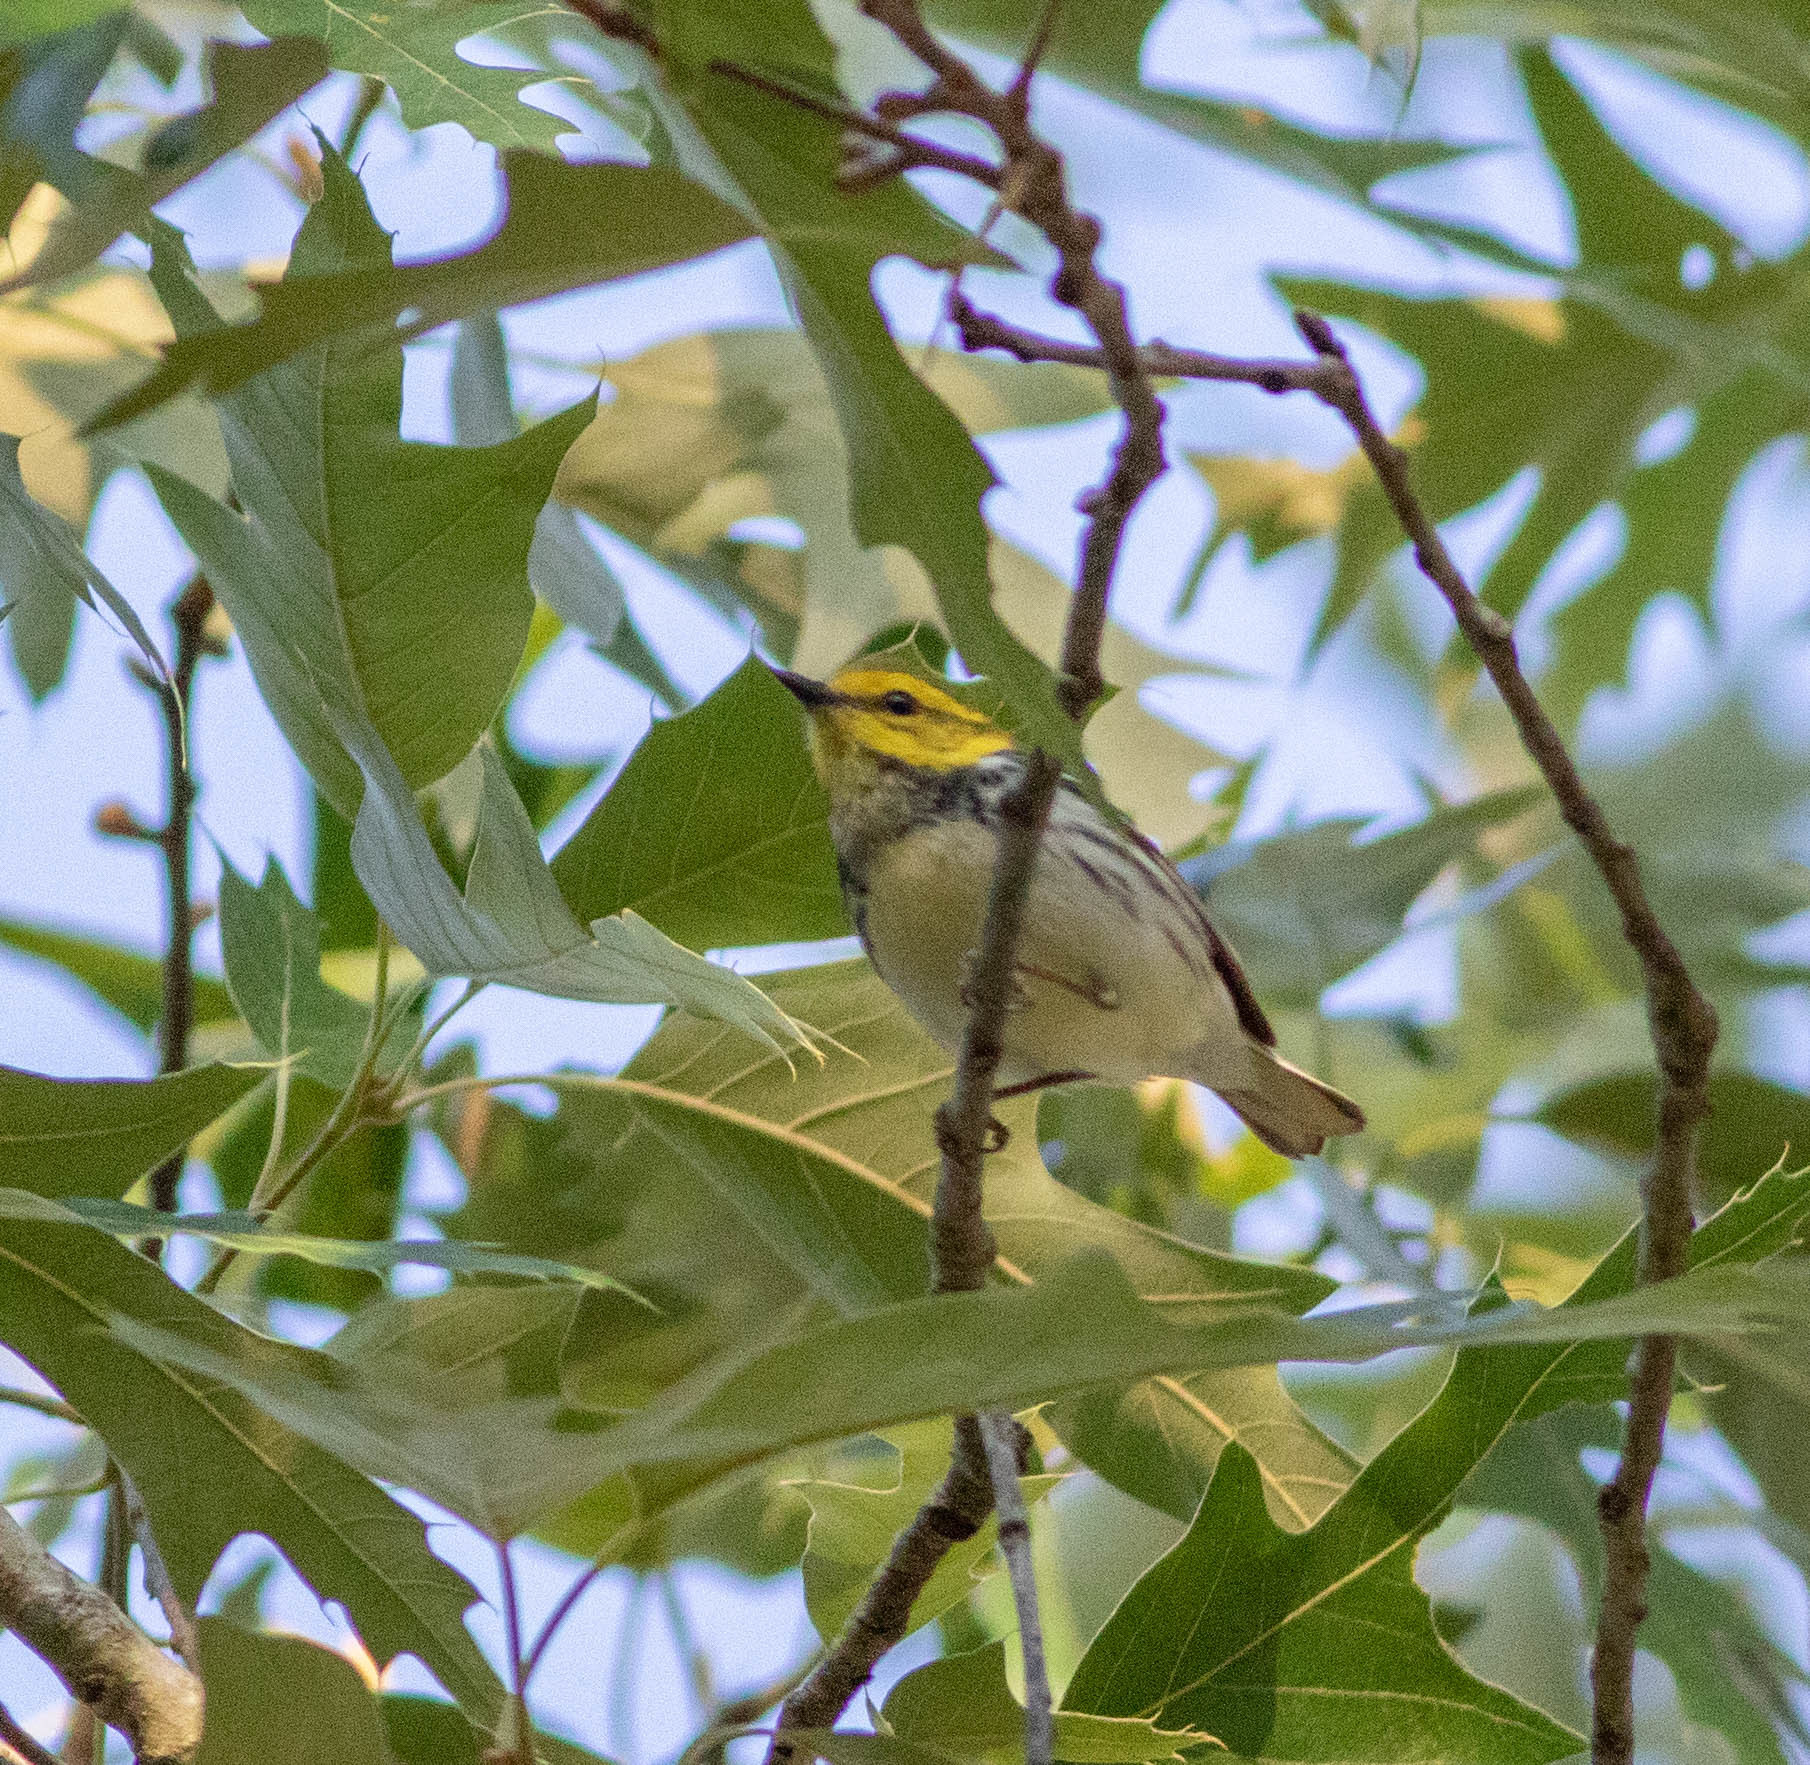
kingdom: Animalia
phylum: Chordata
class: Aves
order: Passeriformes
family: Parulidae
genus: Setophaga
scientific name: Setophaga virens
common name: Black-throated green warbler
